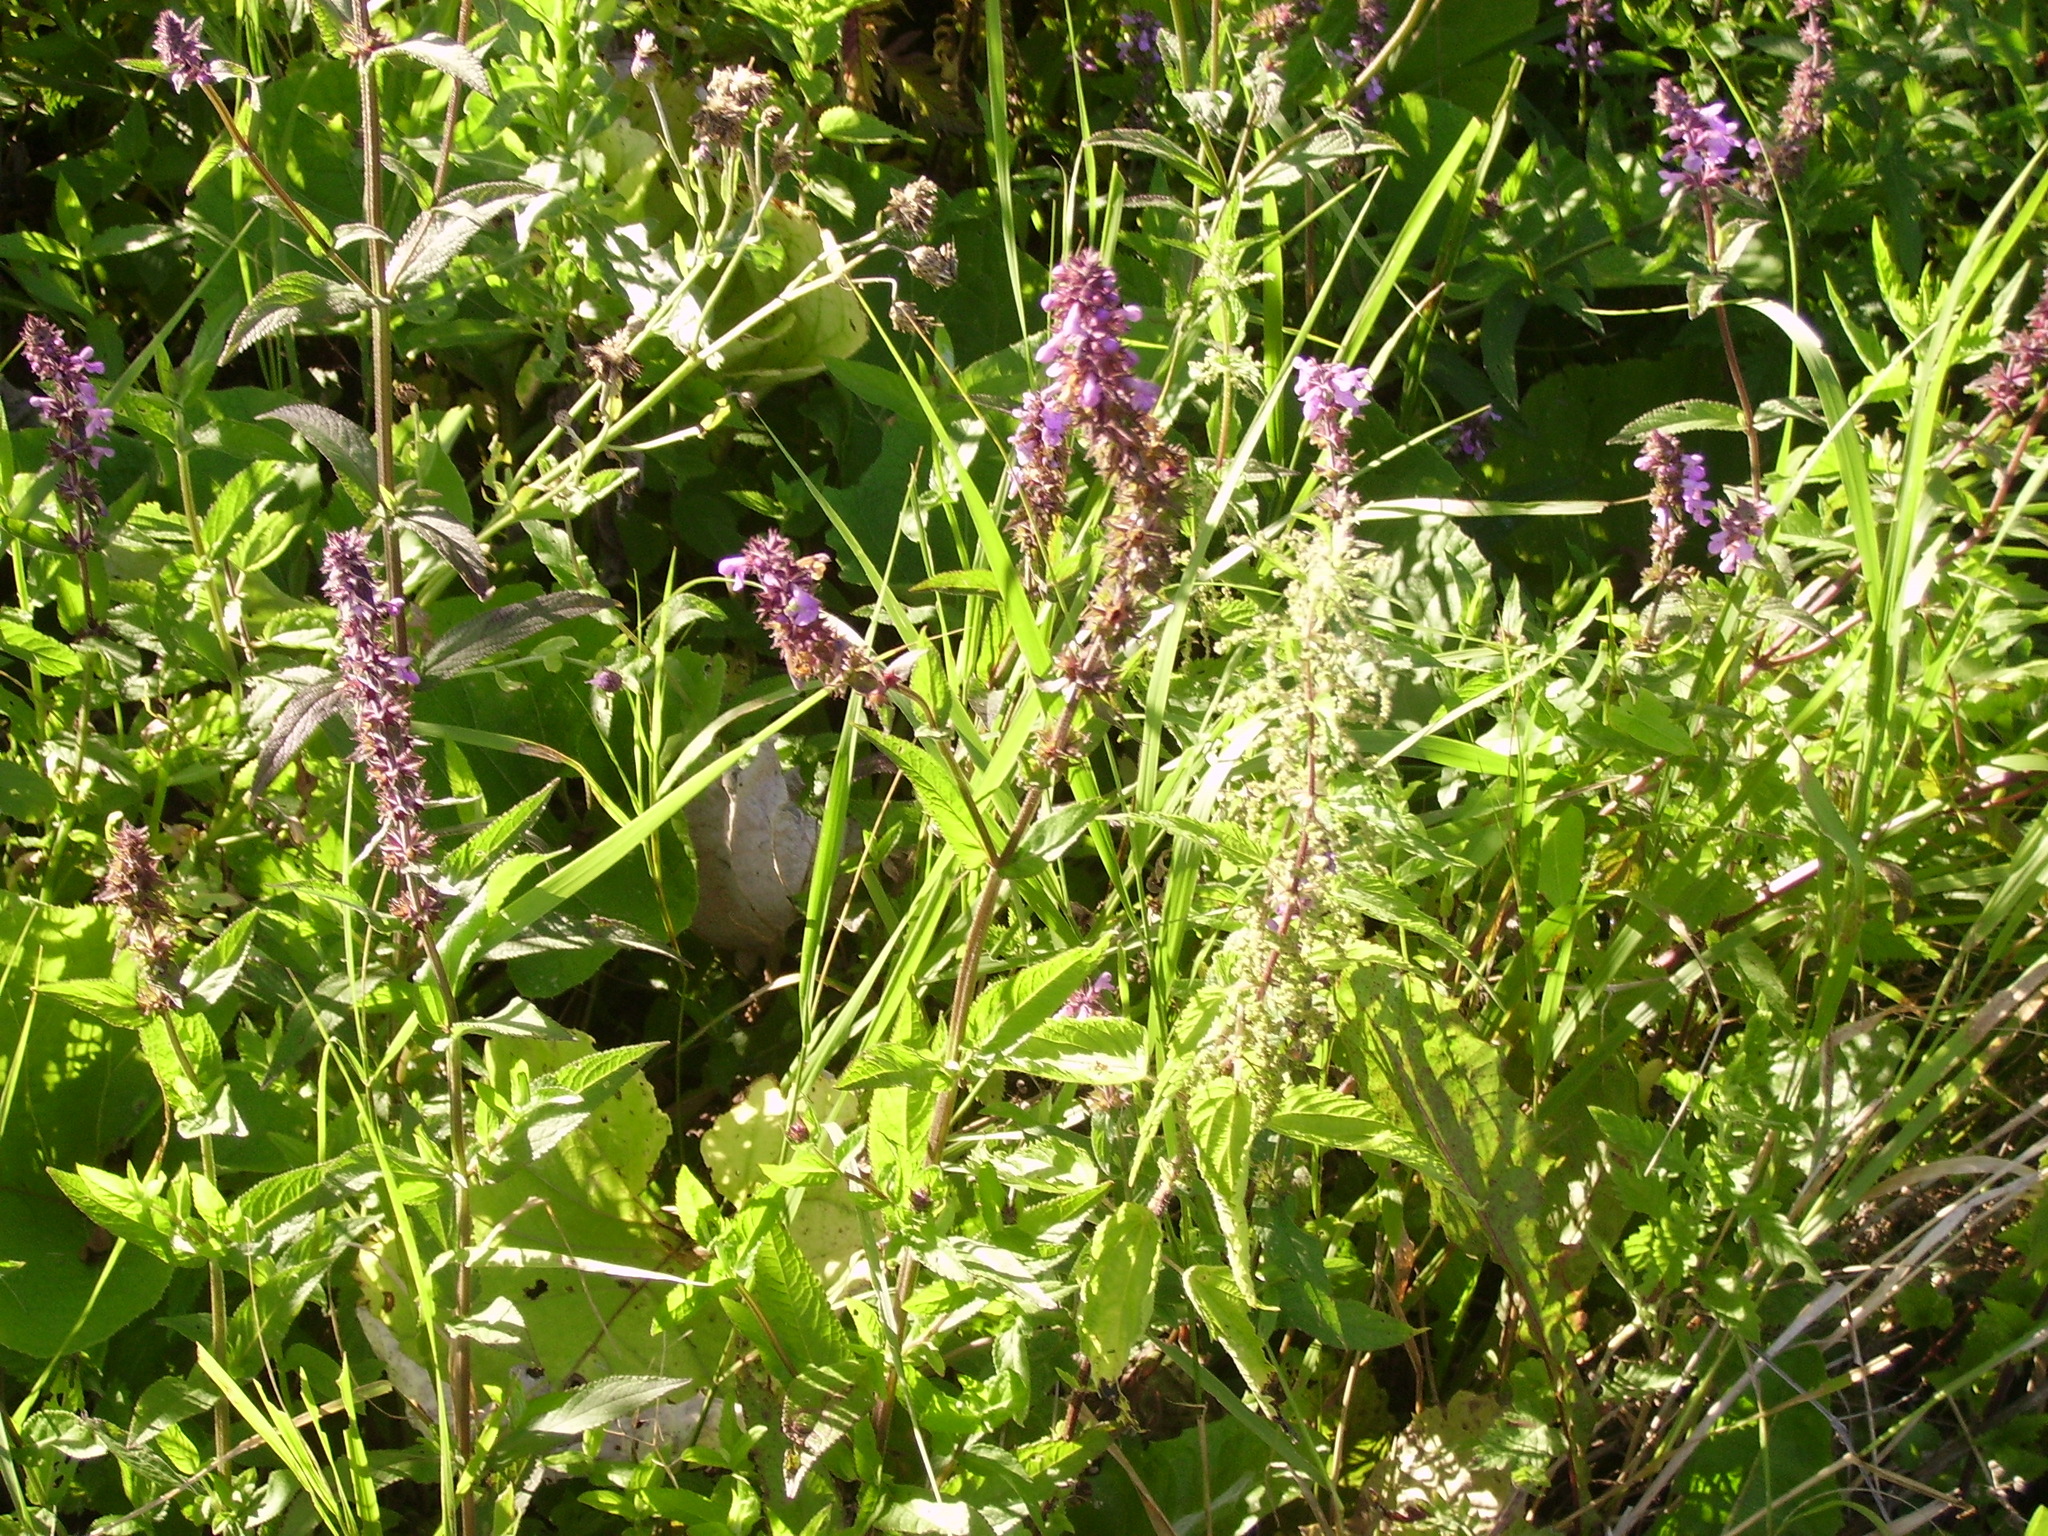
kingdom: Plantae
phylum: Tracheophyta
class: Magnoliopsida
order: Lamiales
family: Lamiaceae
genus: Stachys
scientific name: Stachys palustris
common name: Marsh woundwort
